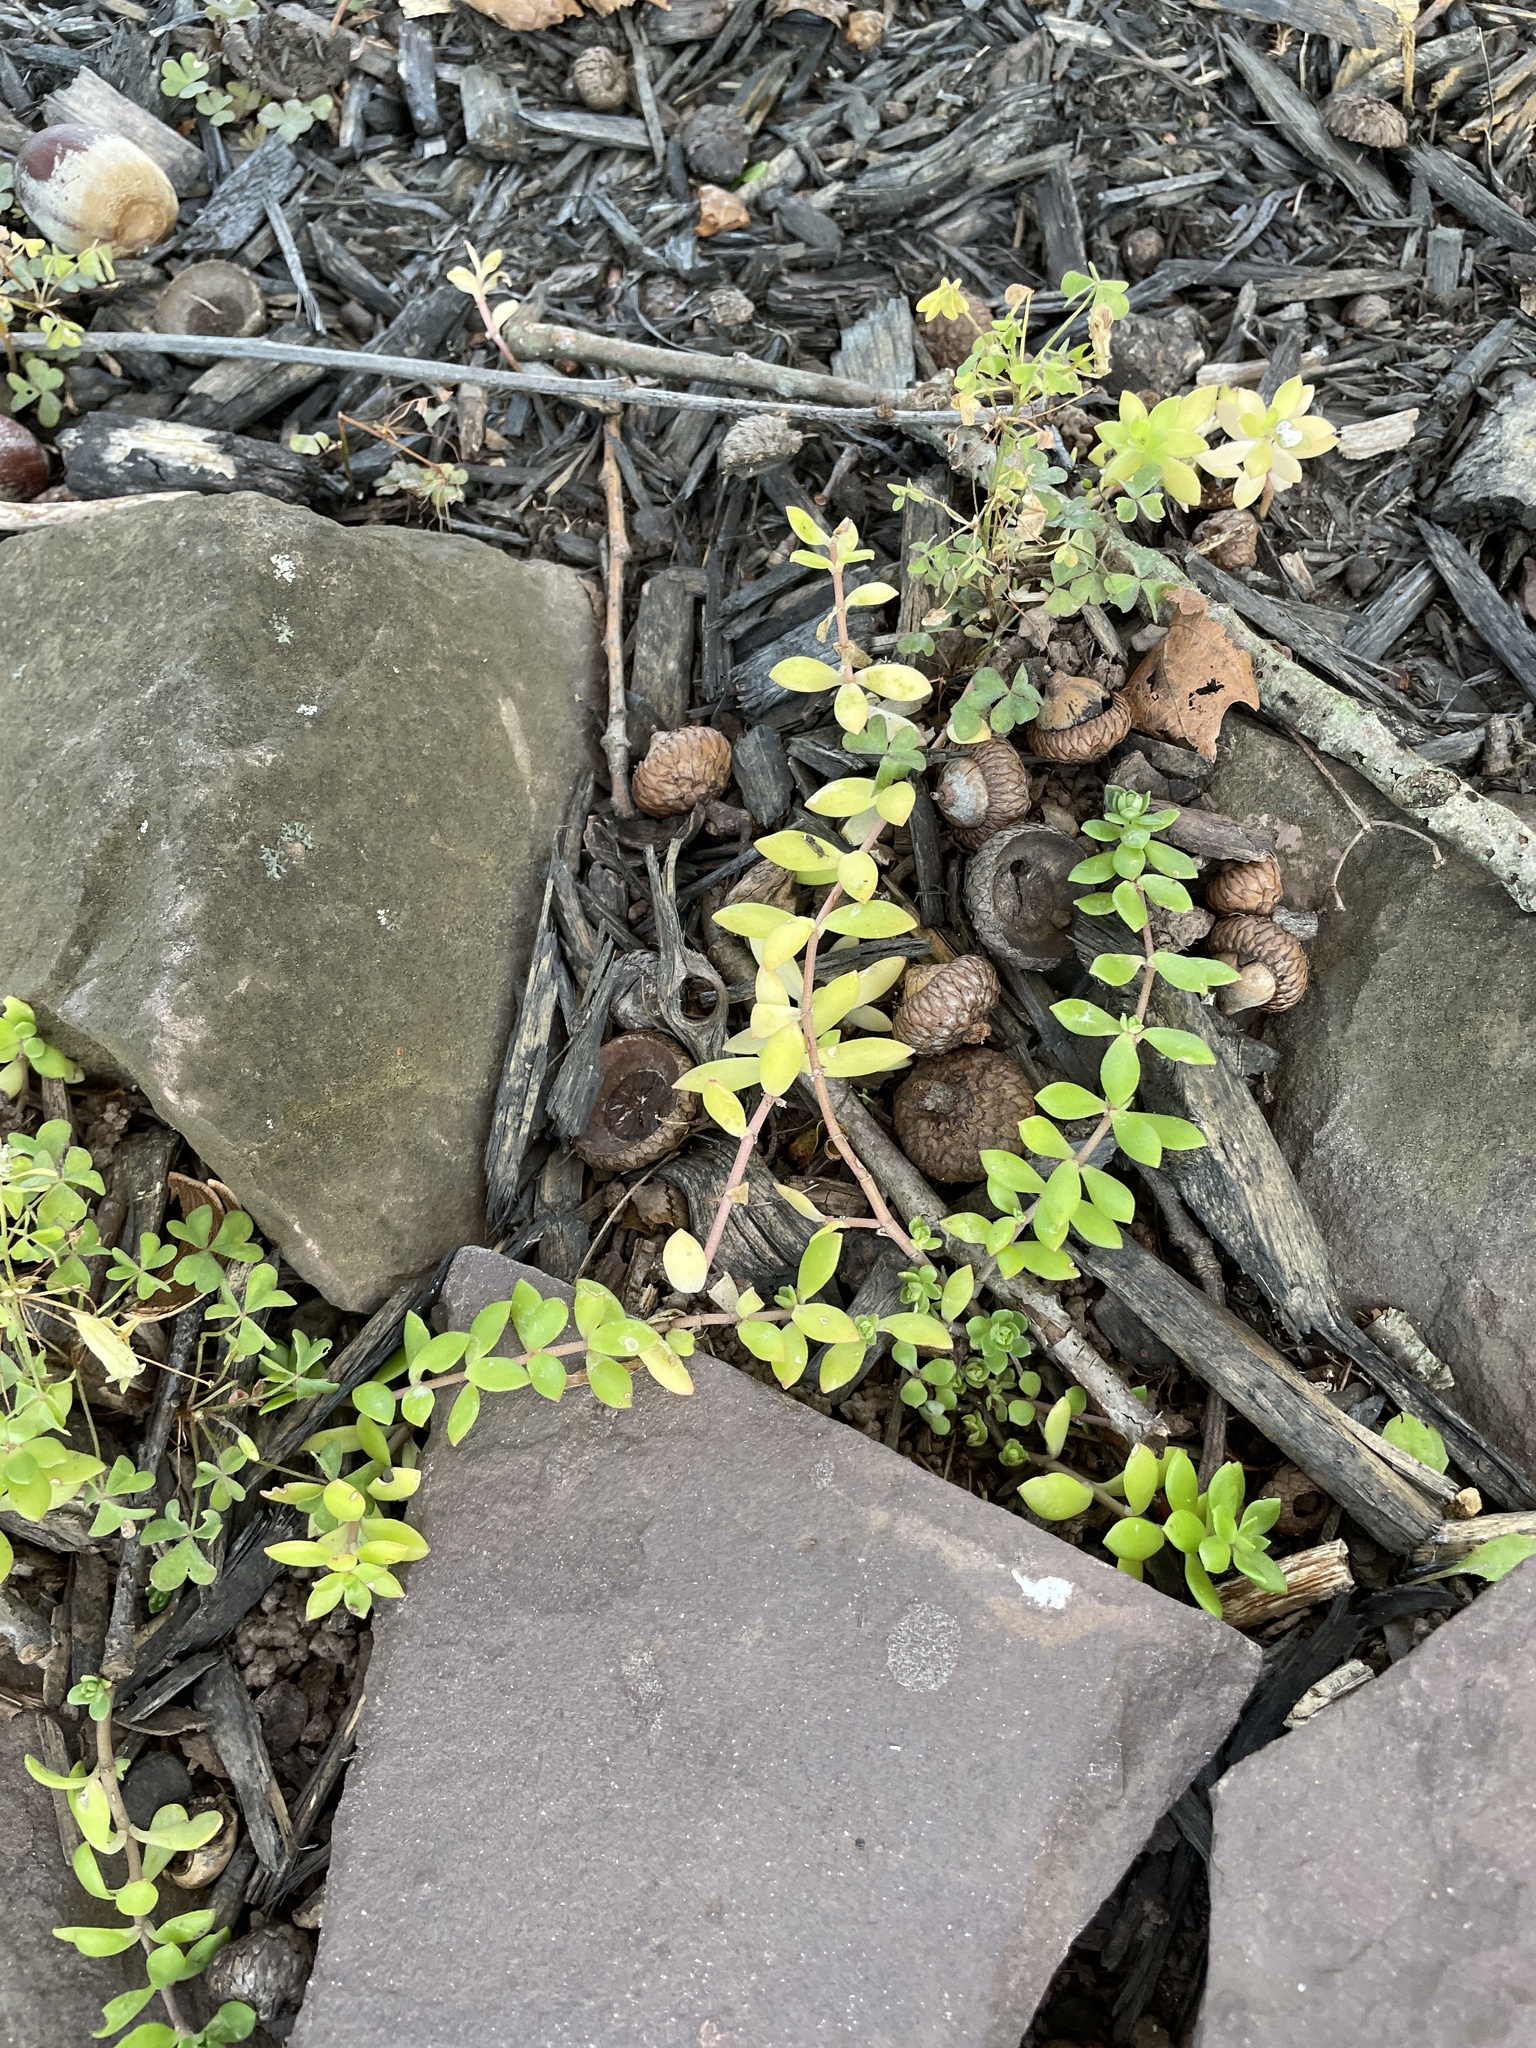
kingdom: Plantae
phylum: Tracheophyta
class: Magnoliopsida
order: Saxifragales
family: Crassulaceae
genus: Sedum
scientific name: Sedum sarmentosum
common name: Stringy stonecrop
